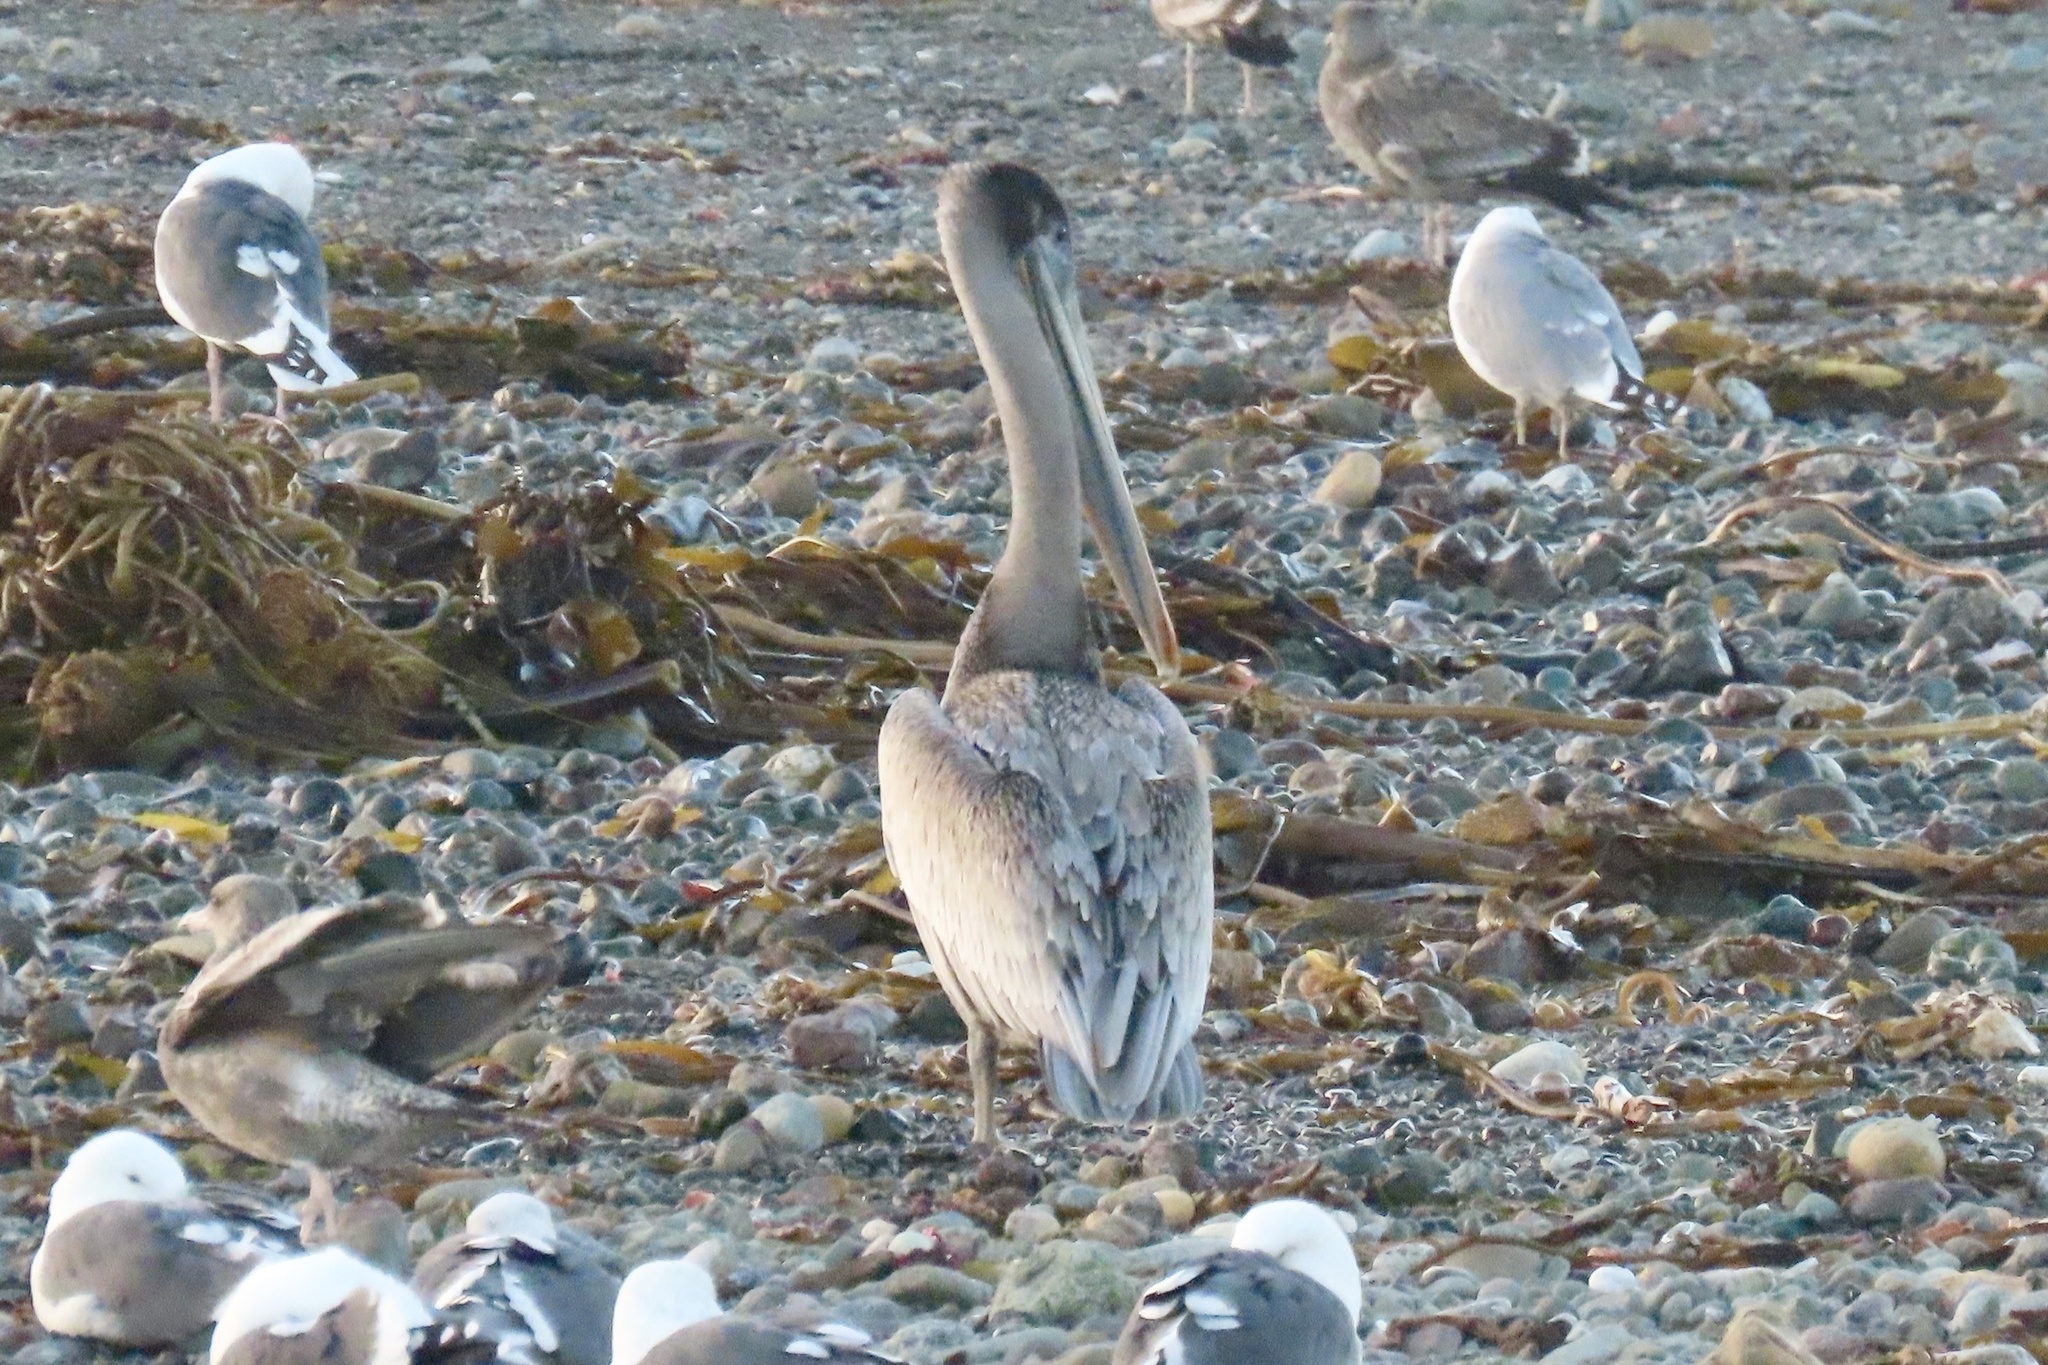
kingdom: Animalia
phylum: Chordata
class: Aves
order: Pelecaniformes
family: Pelecanidae
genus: Pelecanus
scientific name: Pelecanus occidentalis
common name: Brown pelican
